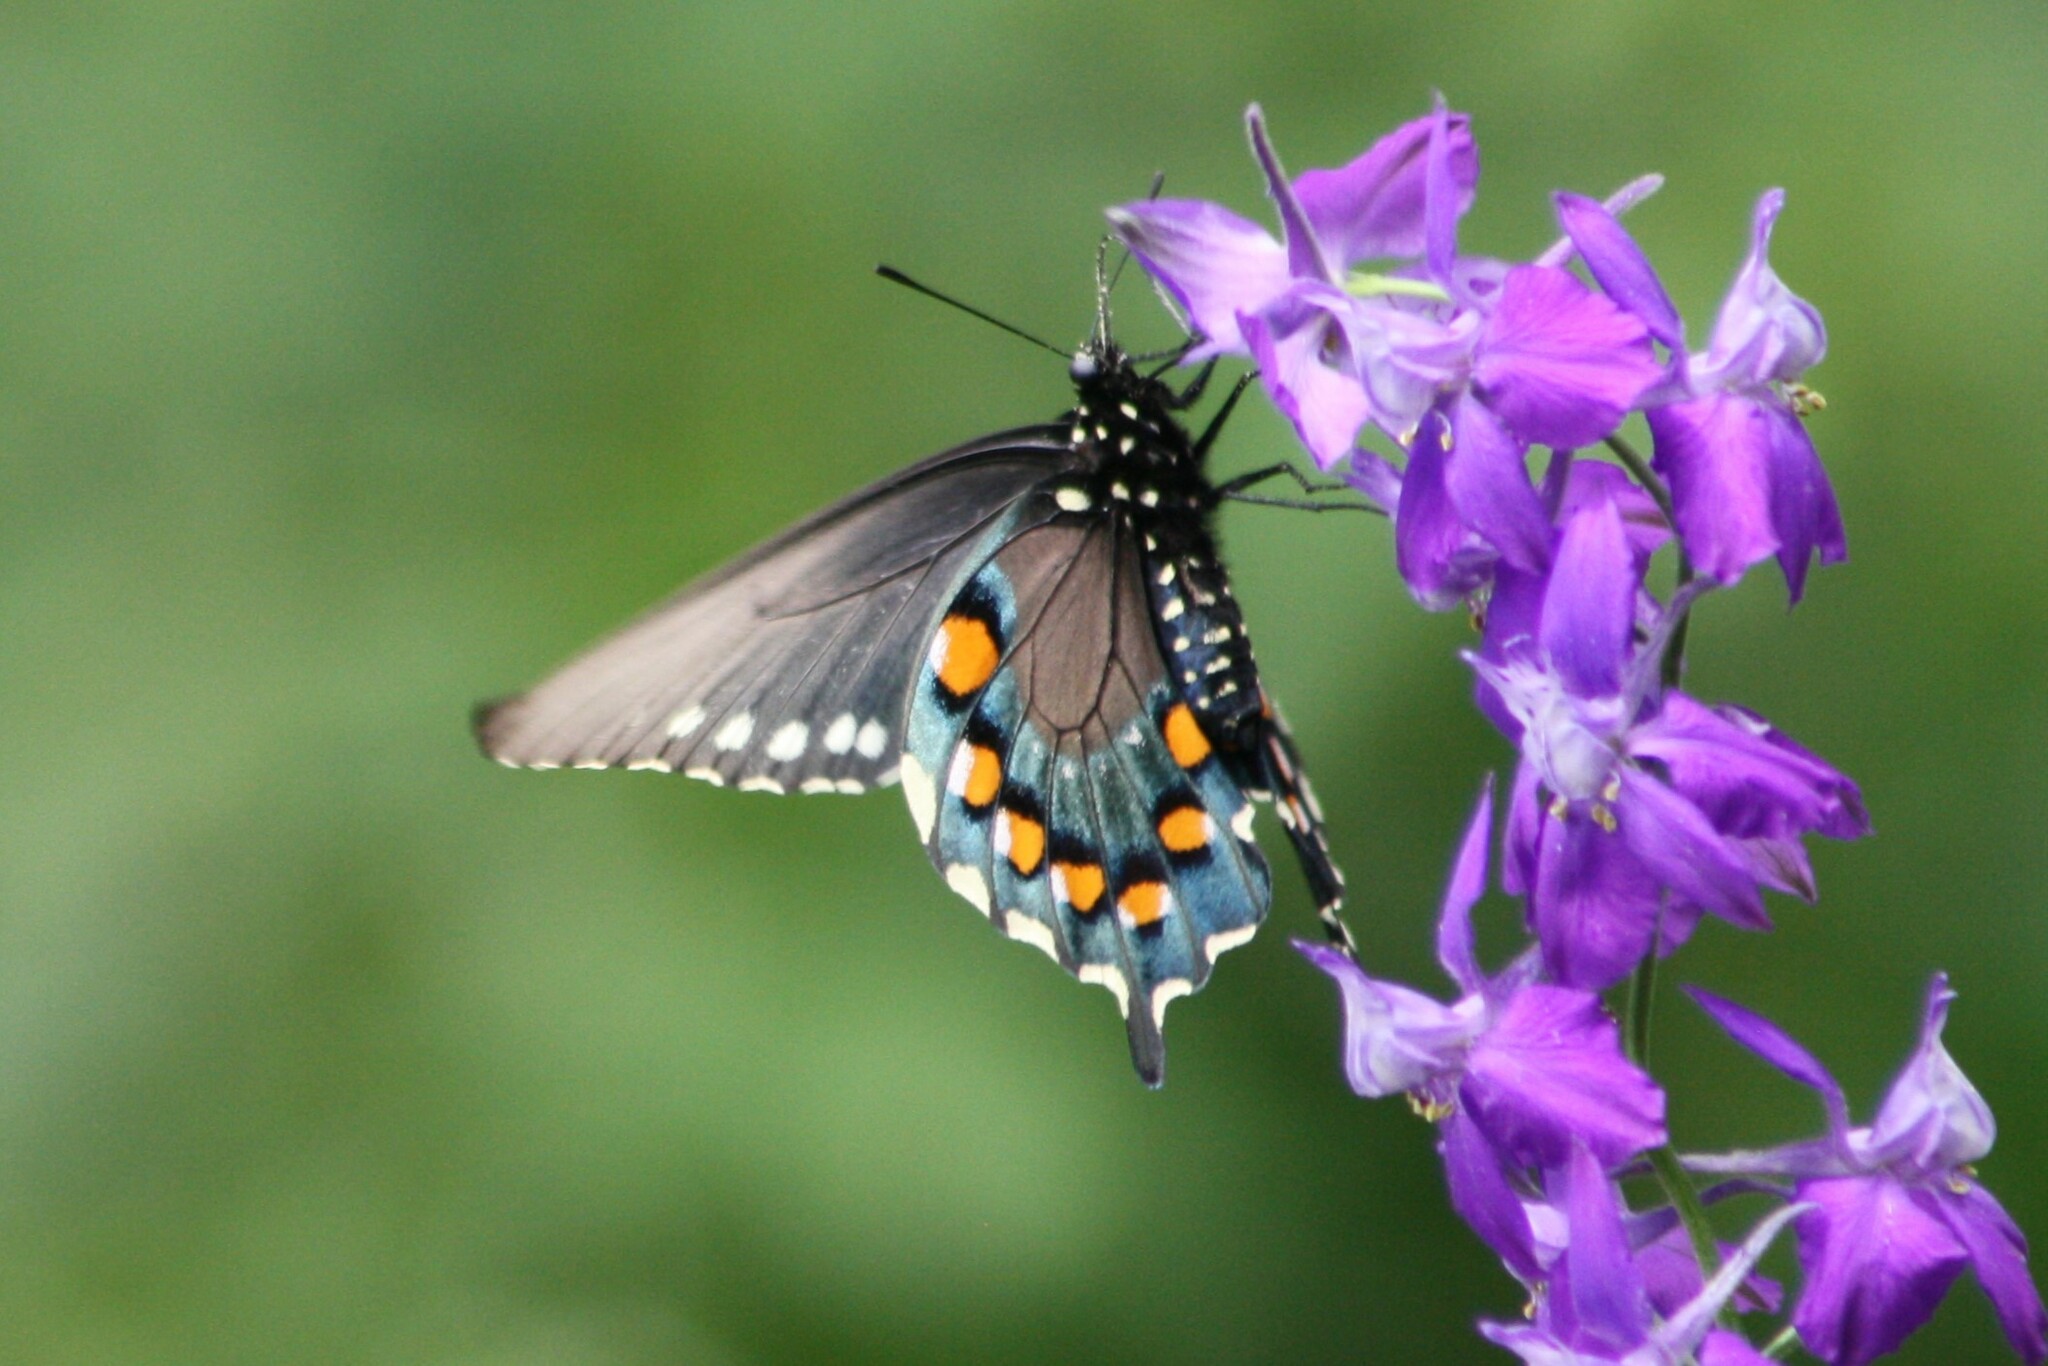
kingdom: Animalia
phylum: Arthropoda
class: Insecta
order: Lepidoptera
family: Papilionidae
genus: Battus
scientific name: Battus philenor
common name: Pipevine swallowtail
